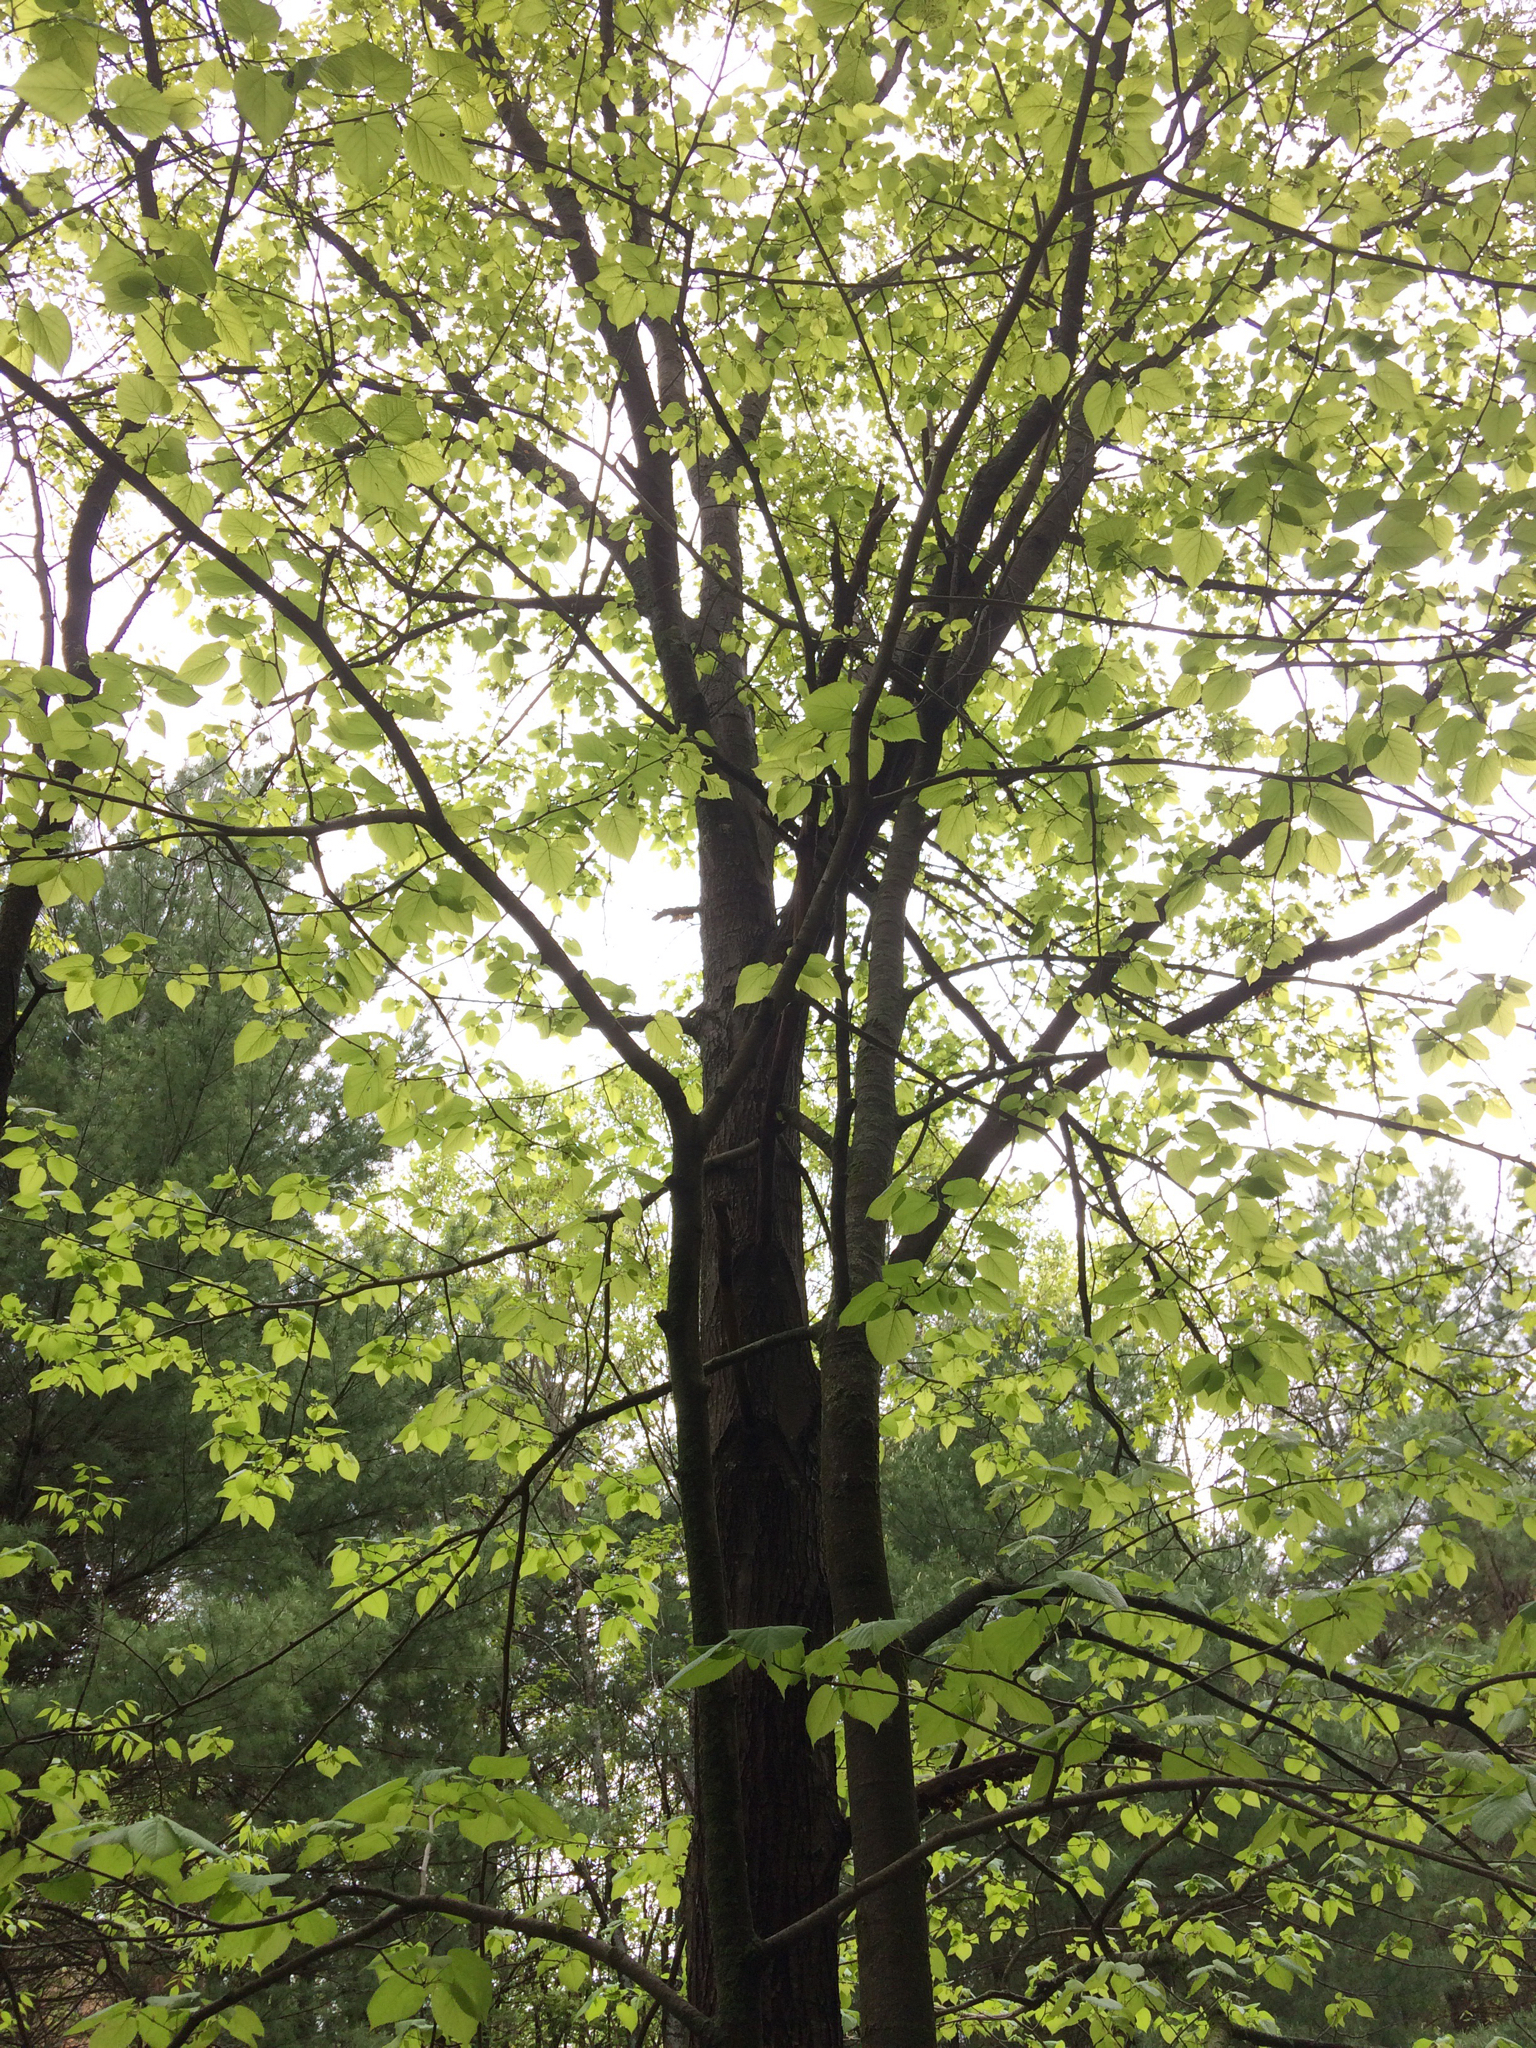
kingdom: Plantae
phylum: Tracheophyta
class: Magnoliopsida
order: Malvales
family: Malvaceae
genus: Tilia
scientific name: Tilia americana
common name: Basswood
